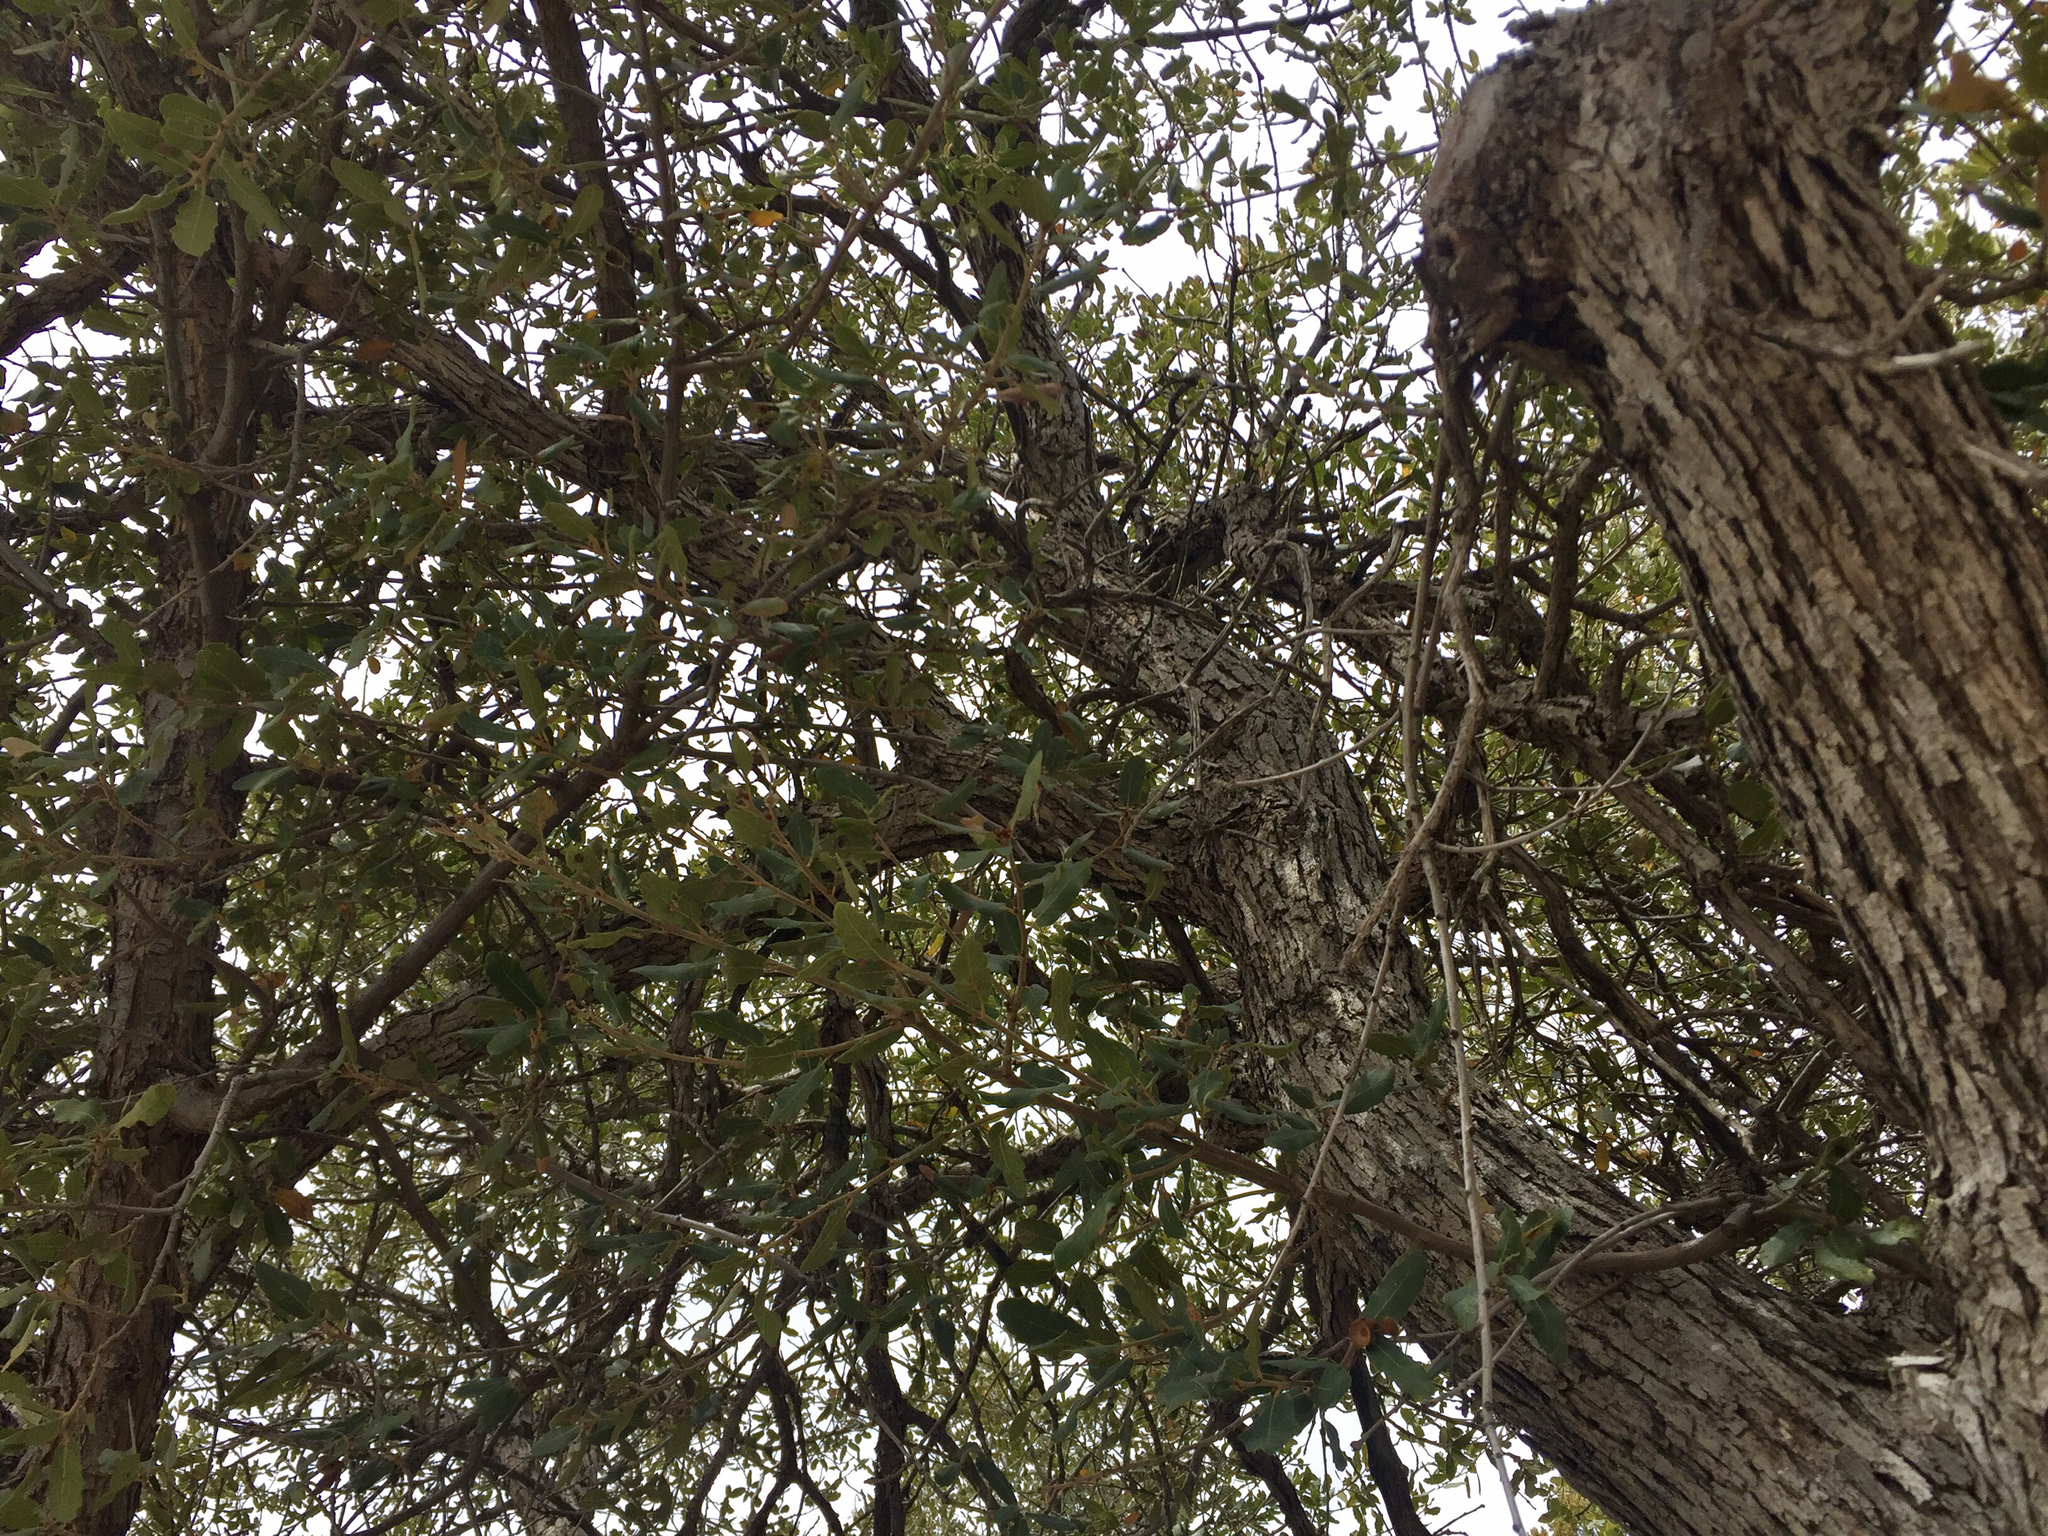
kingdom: Plantae
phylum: Tracheophyta
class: Magnoliopsida
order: Fagales
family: Fagaceae
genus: Quercus
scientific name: Quercus arizonica
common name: Arizona white oak
